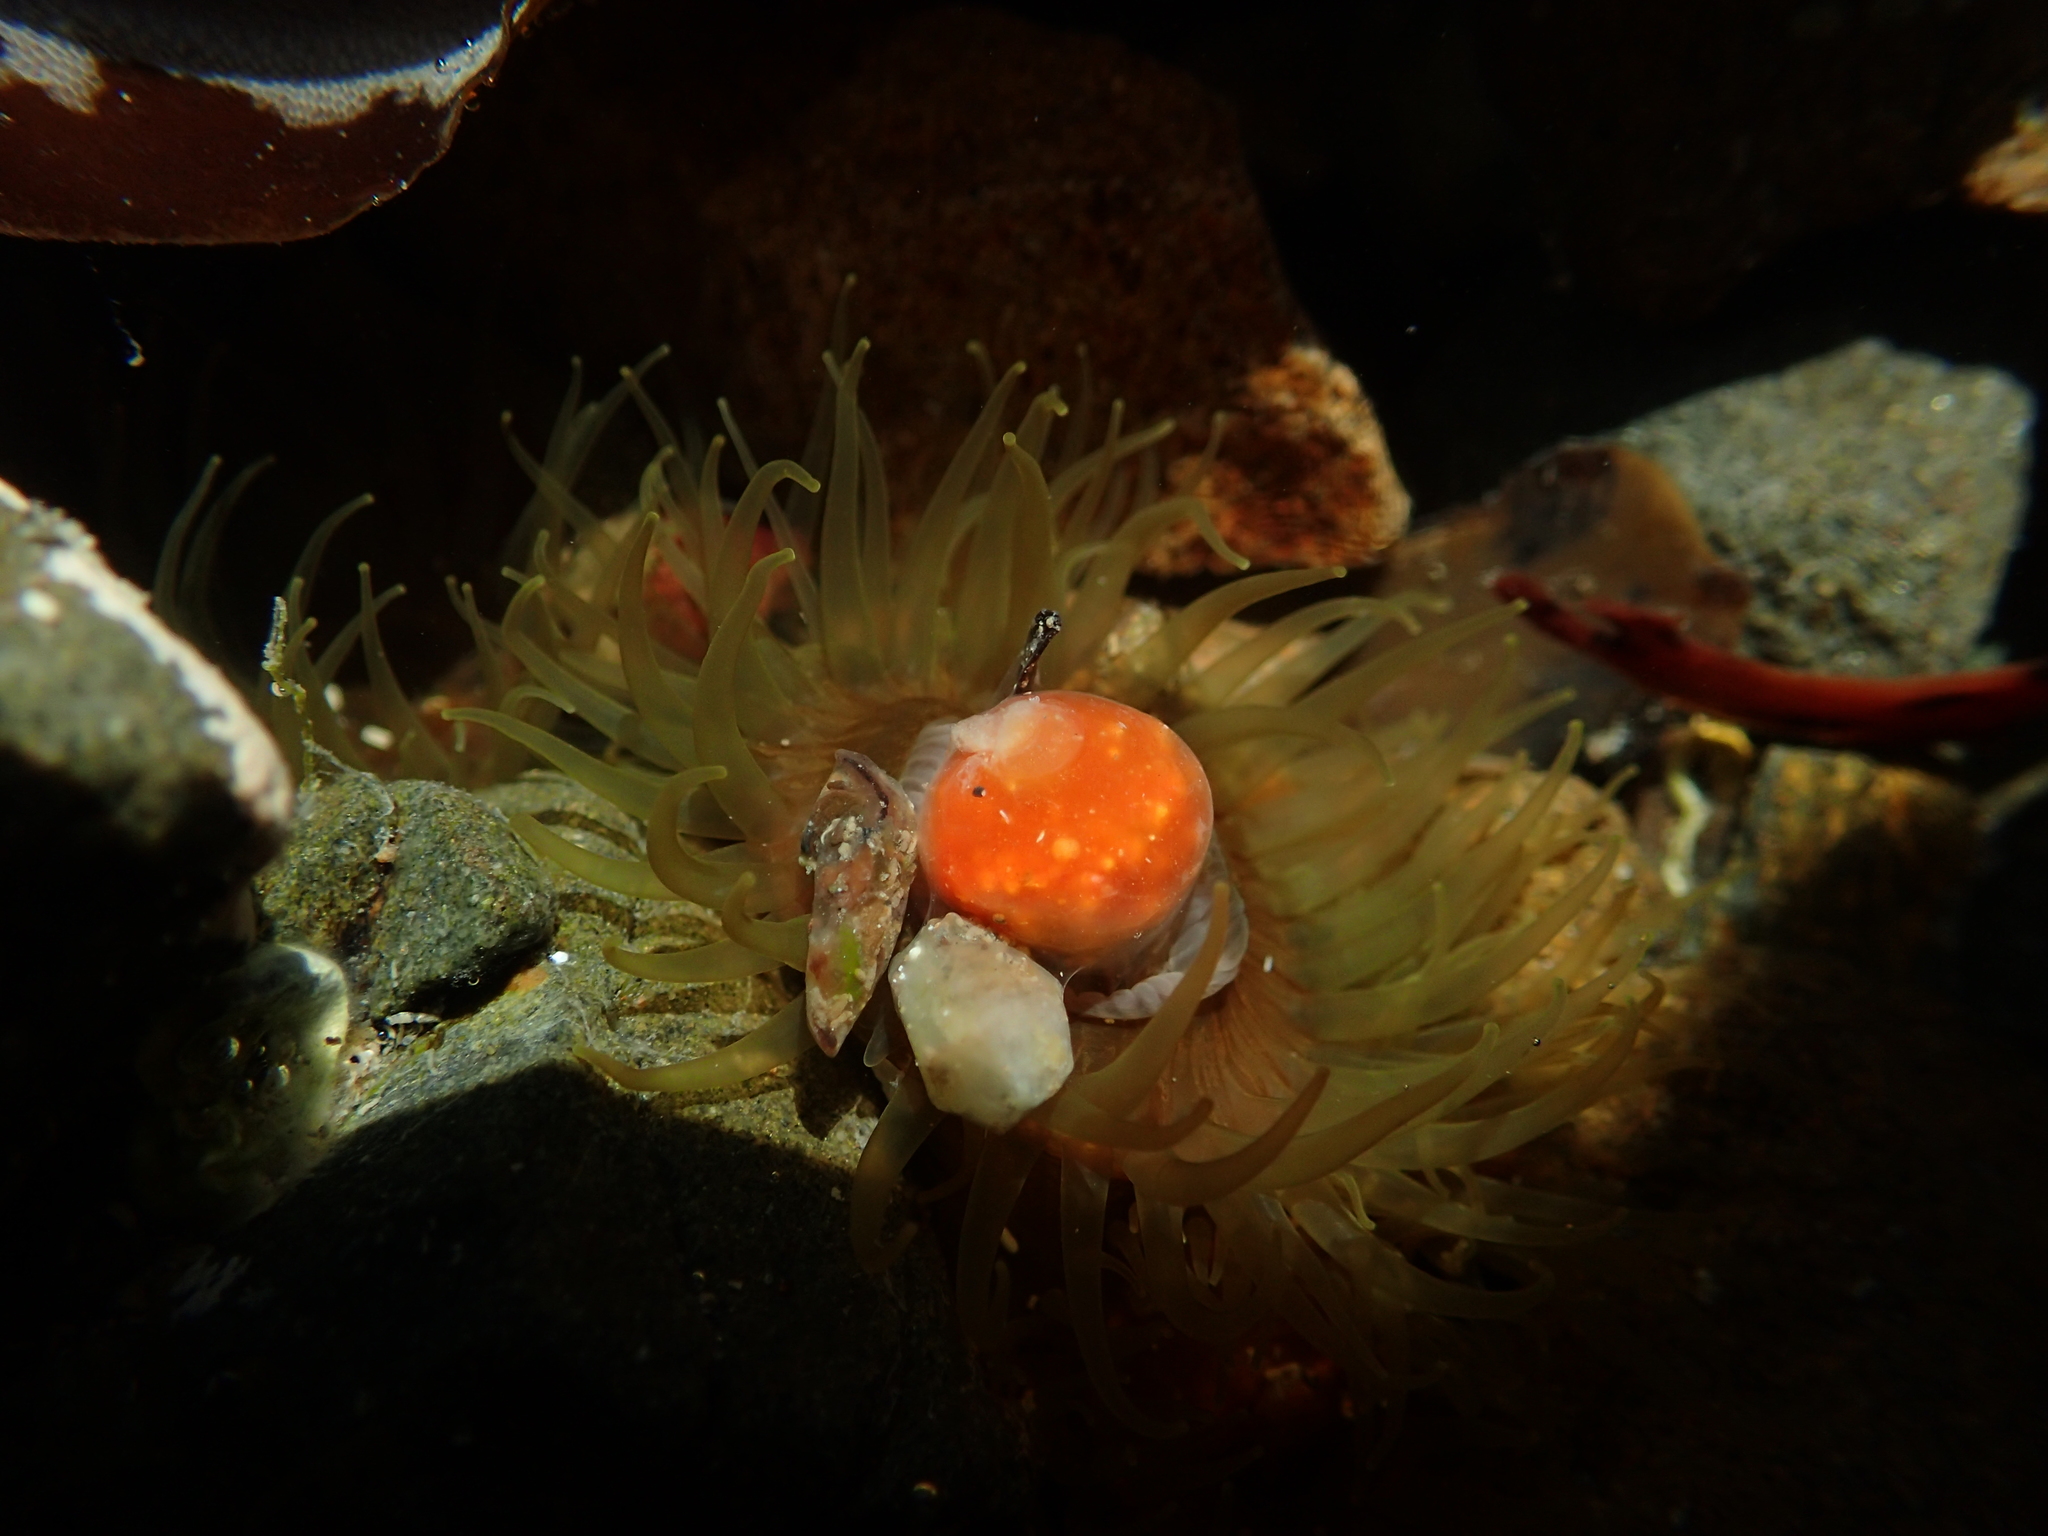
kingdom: Animalia
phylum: Chordata
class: Ascidiacea
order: Aplousobranchia
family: Polyclinidae
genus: Aplidium
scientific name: Aplidium benhami
